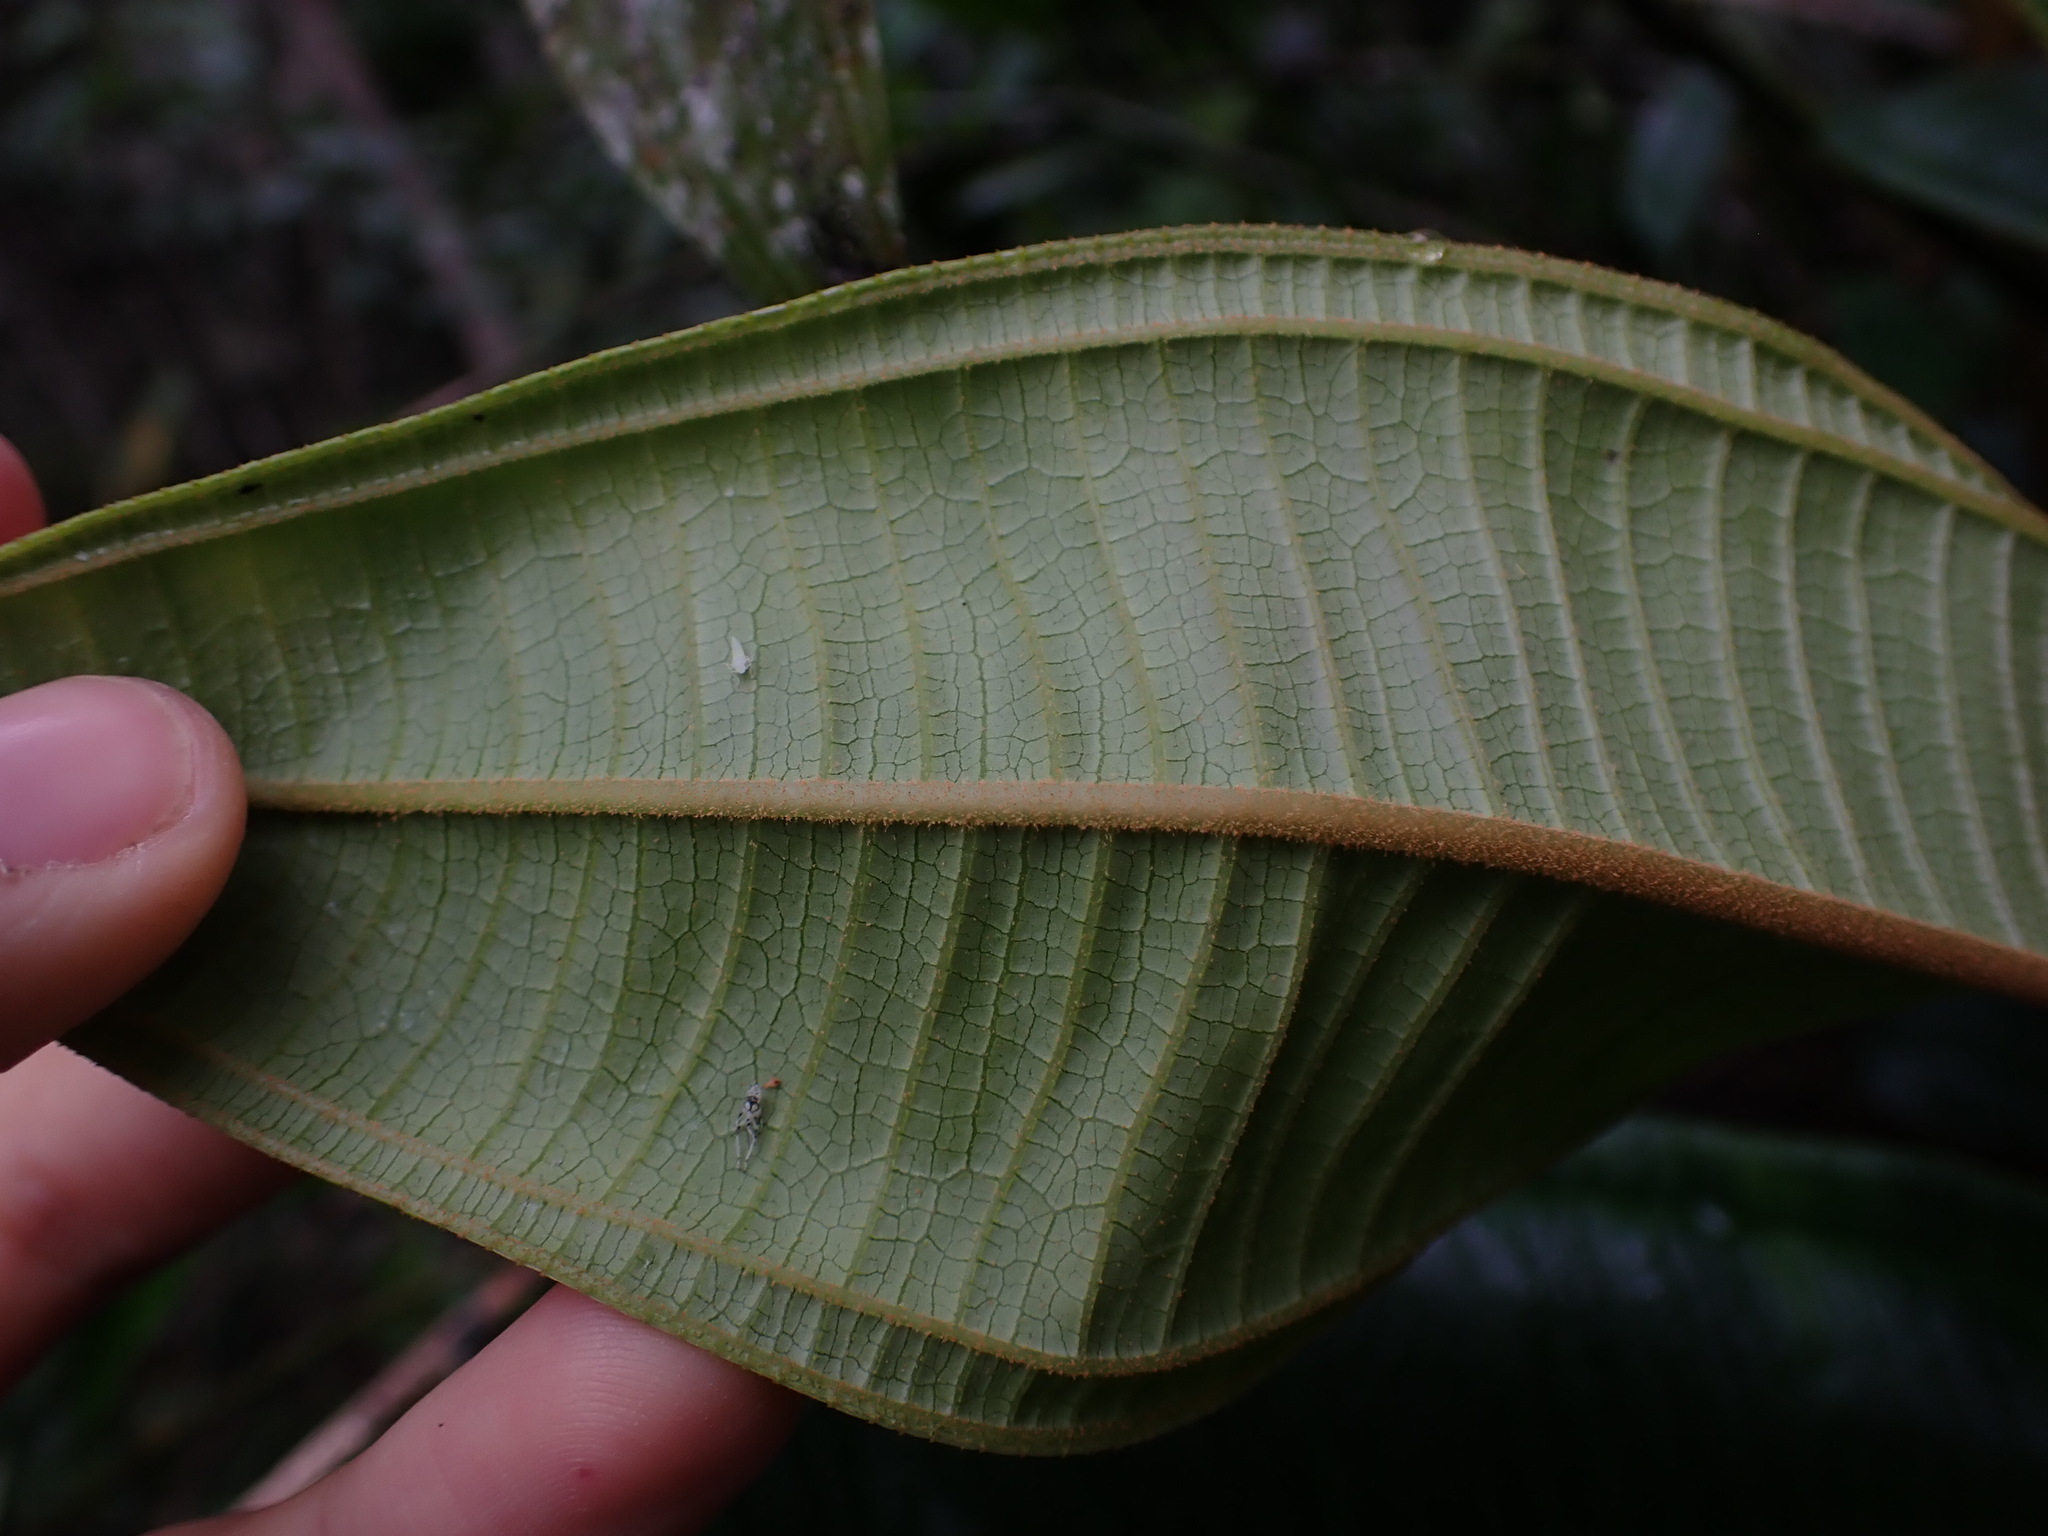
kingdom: Plantae
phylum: Tracheophyta
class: Magnoliopsida
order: Myrtales
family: Melastomataceae
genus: Miconia
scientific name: Miconia adinantha
